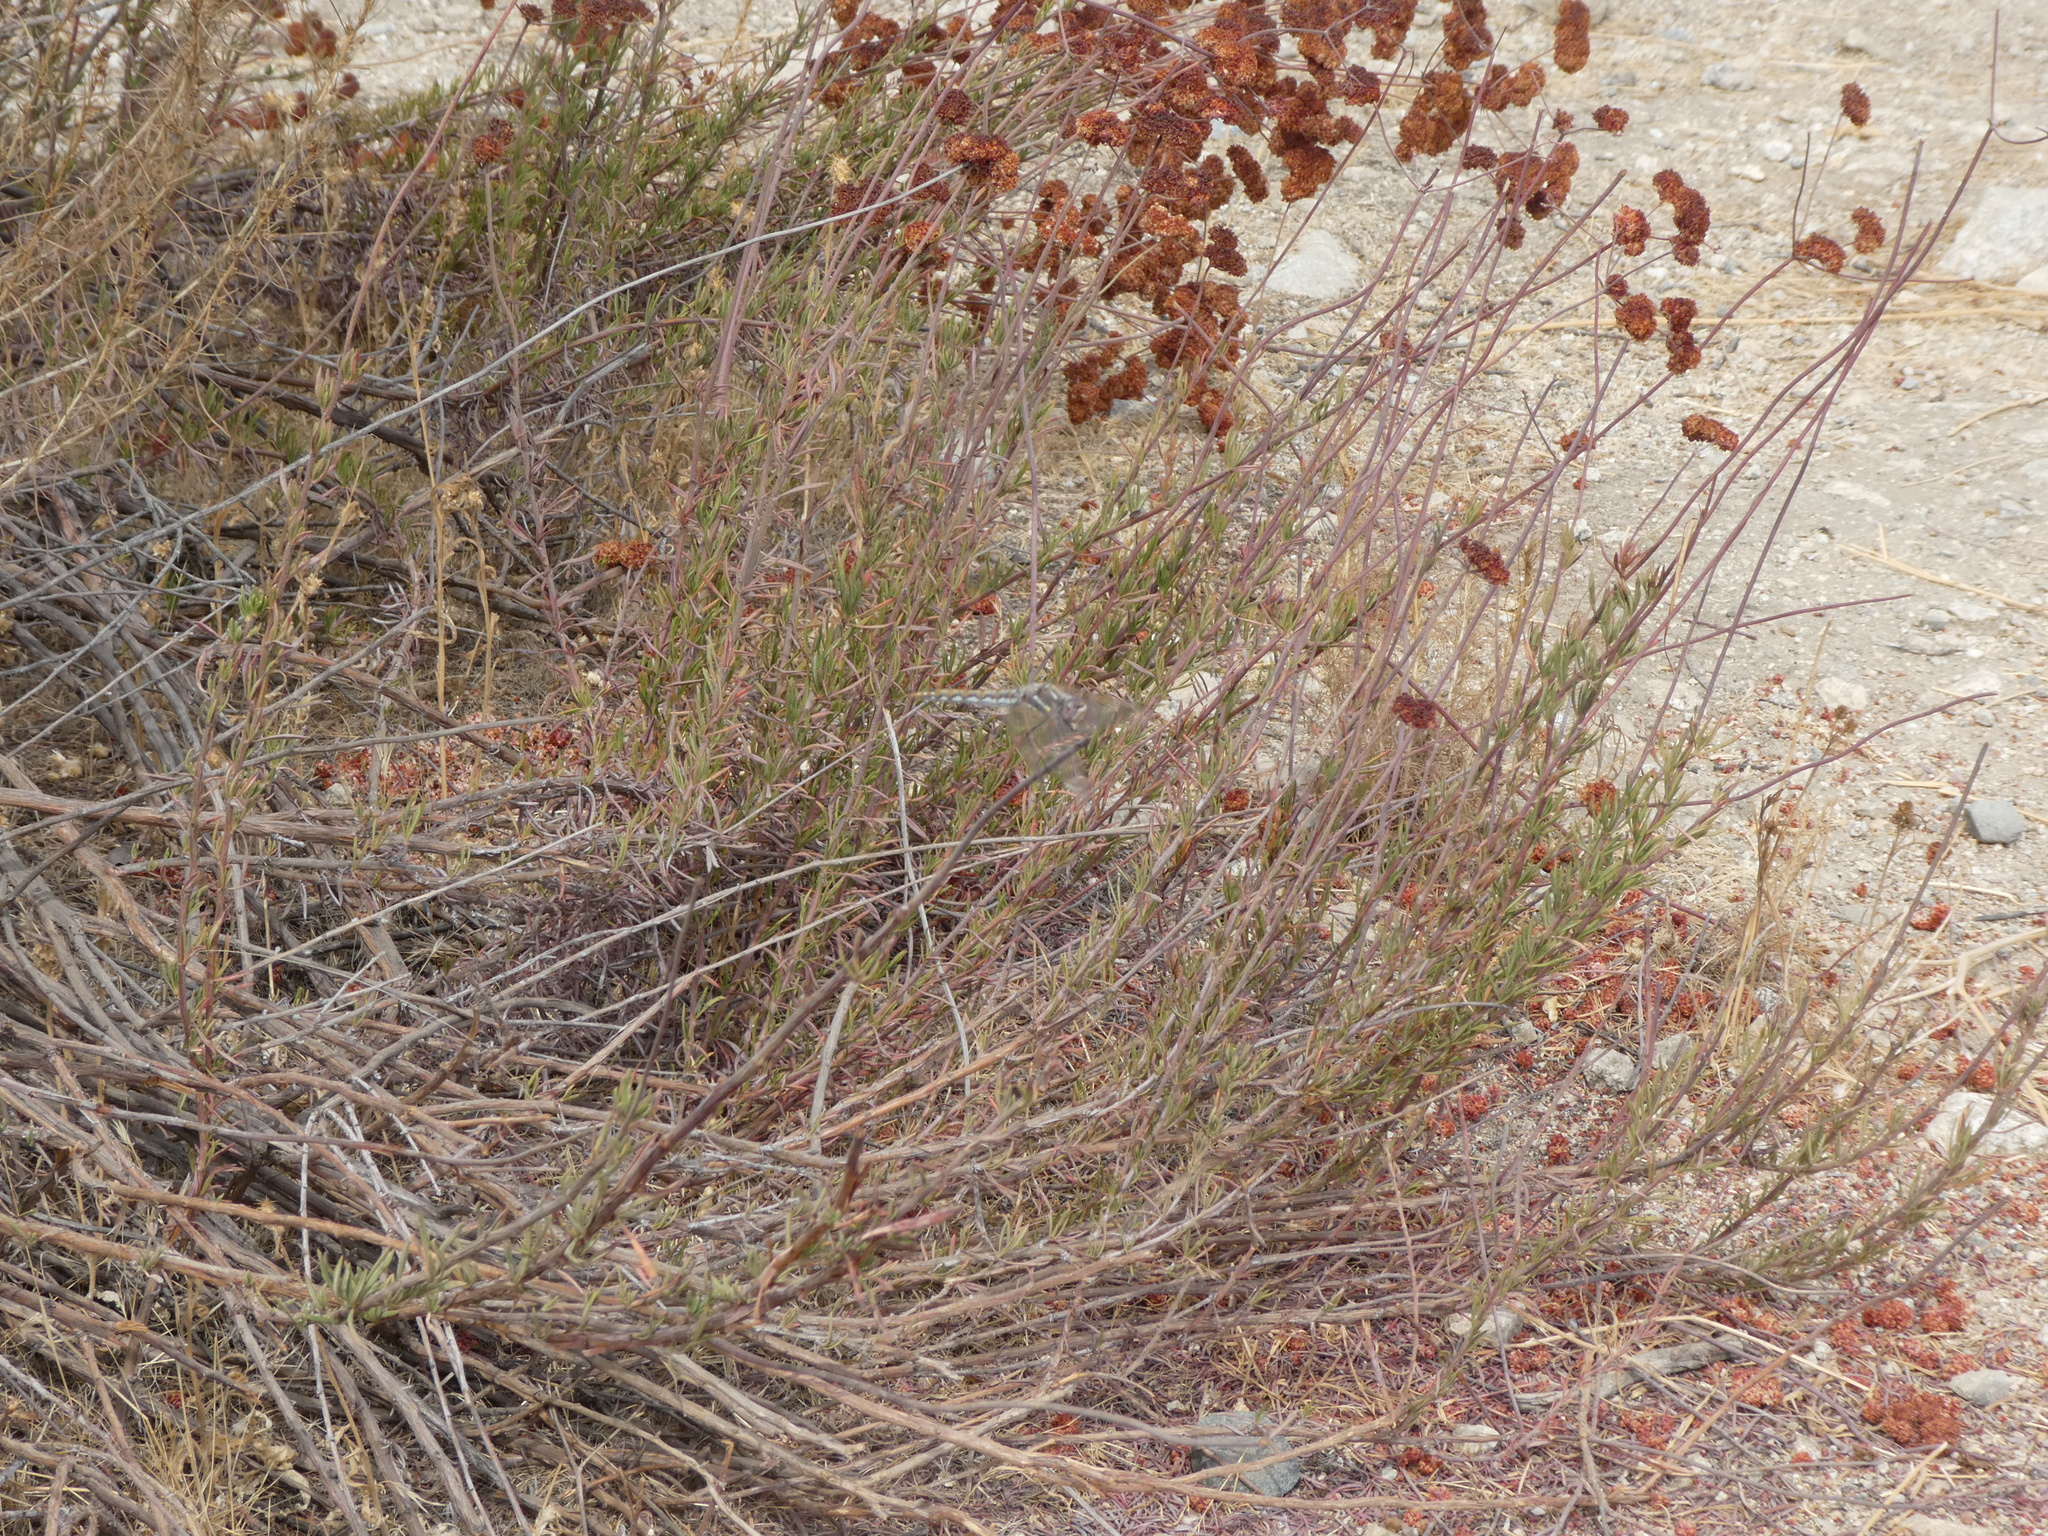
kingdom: Animalia
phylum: Arthropoda
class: Insecta
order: Odonata
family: Libellulidae
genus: Sympetrum
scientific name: Sympetrum corruptum
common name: Variegated meadowhawk
